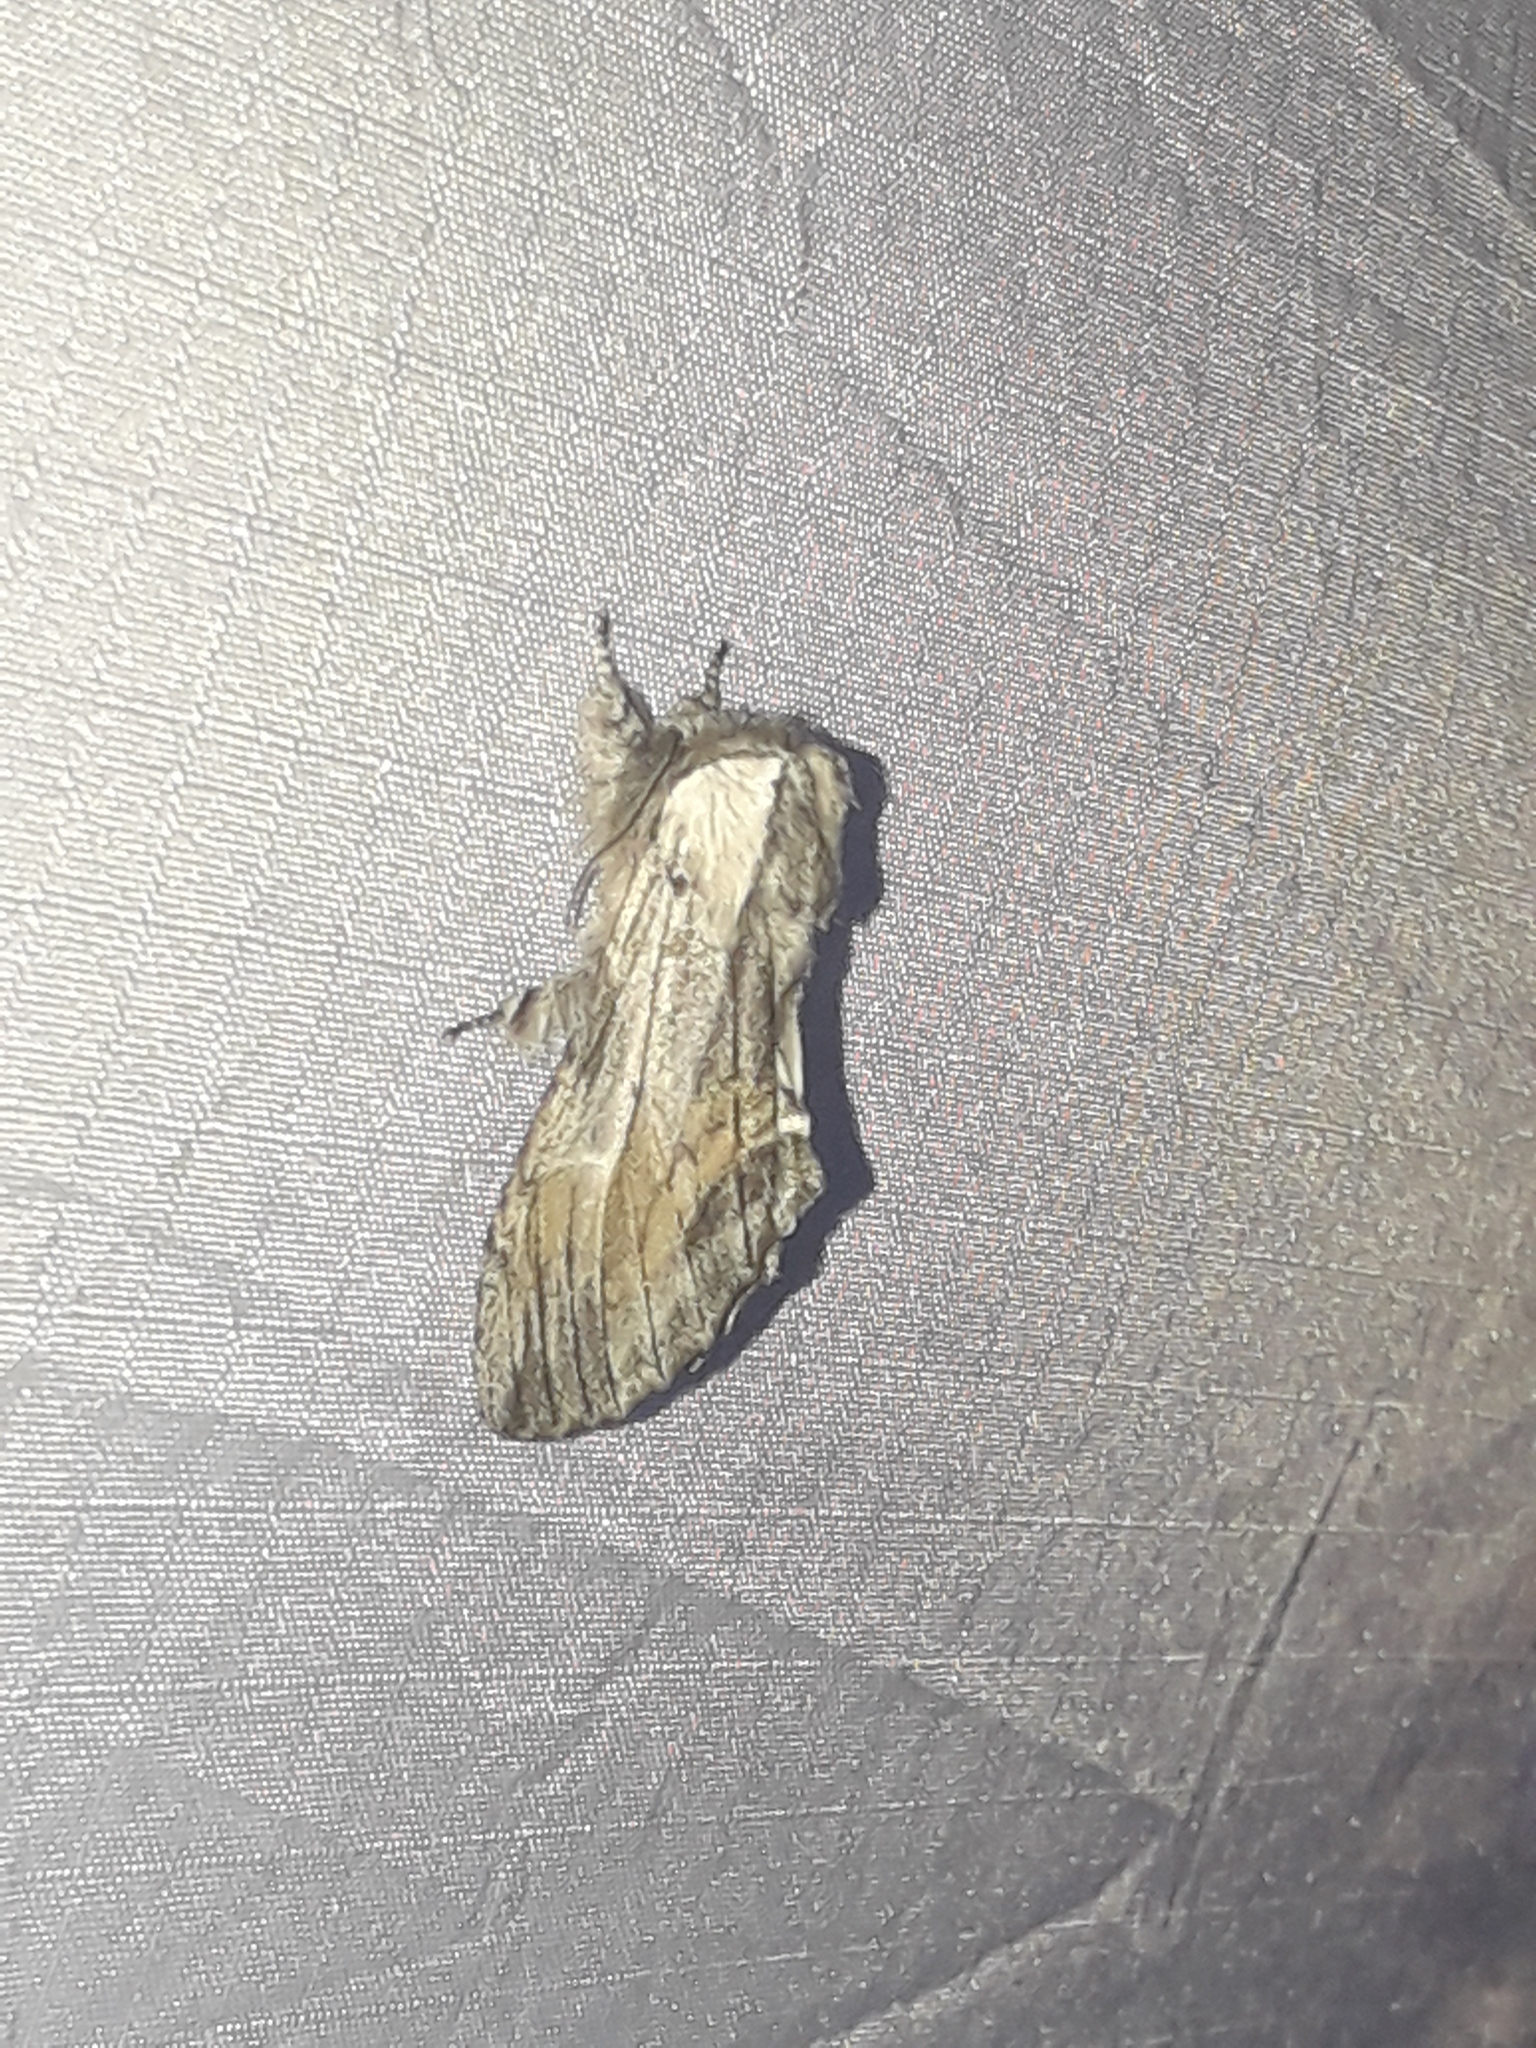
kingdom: Animalia
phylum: Arthropoda
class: Insecta
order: Lepidoptera
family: Notodontidae
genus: Harpyia
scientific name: Harpyia milhauseri
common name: Tawny prominent
